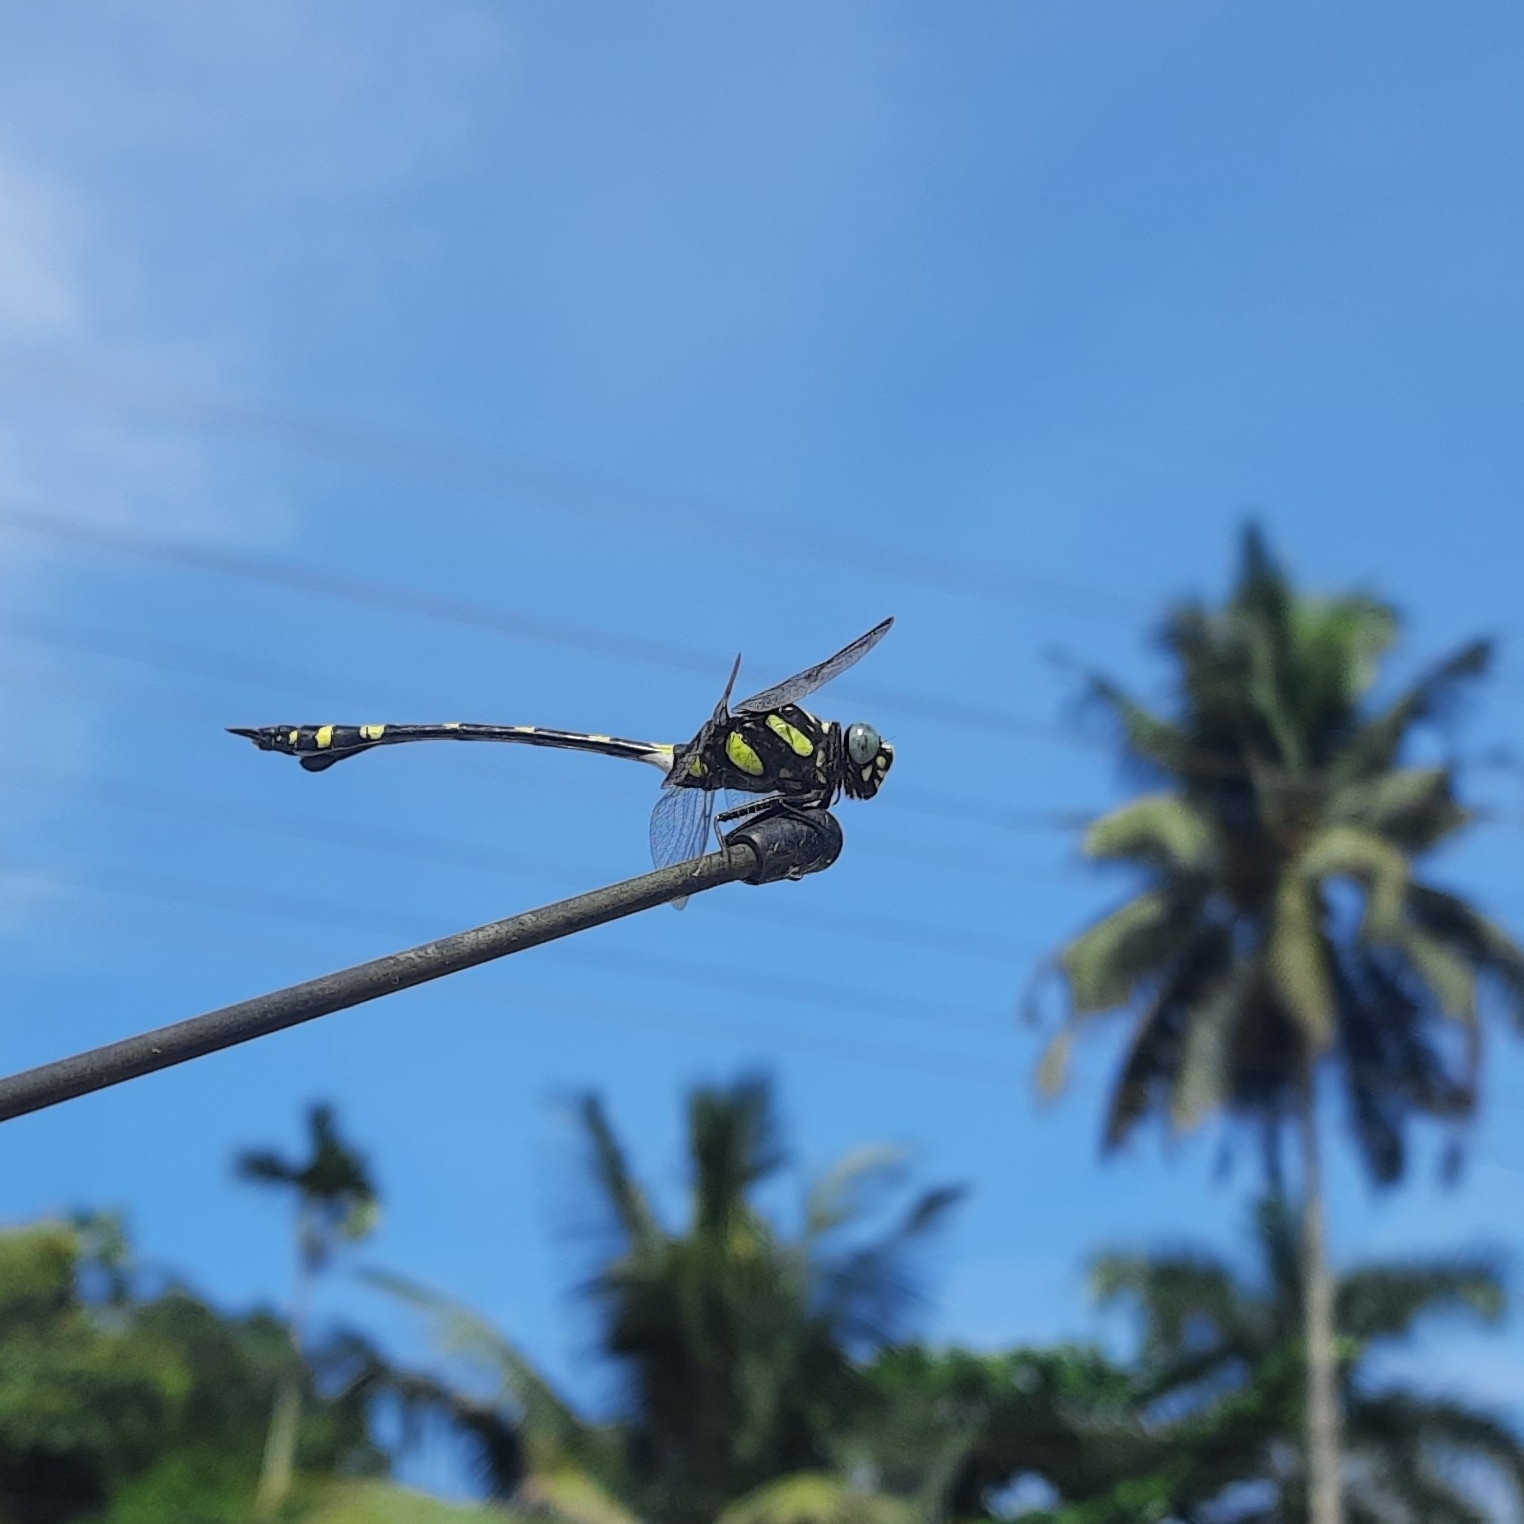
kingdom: Animalia
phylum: Arthropoda
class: Insecta
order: Odonata
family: Gomphidae
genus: Ictinogomphus
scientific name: Ictinogomphus rapax
